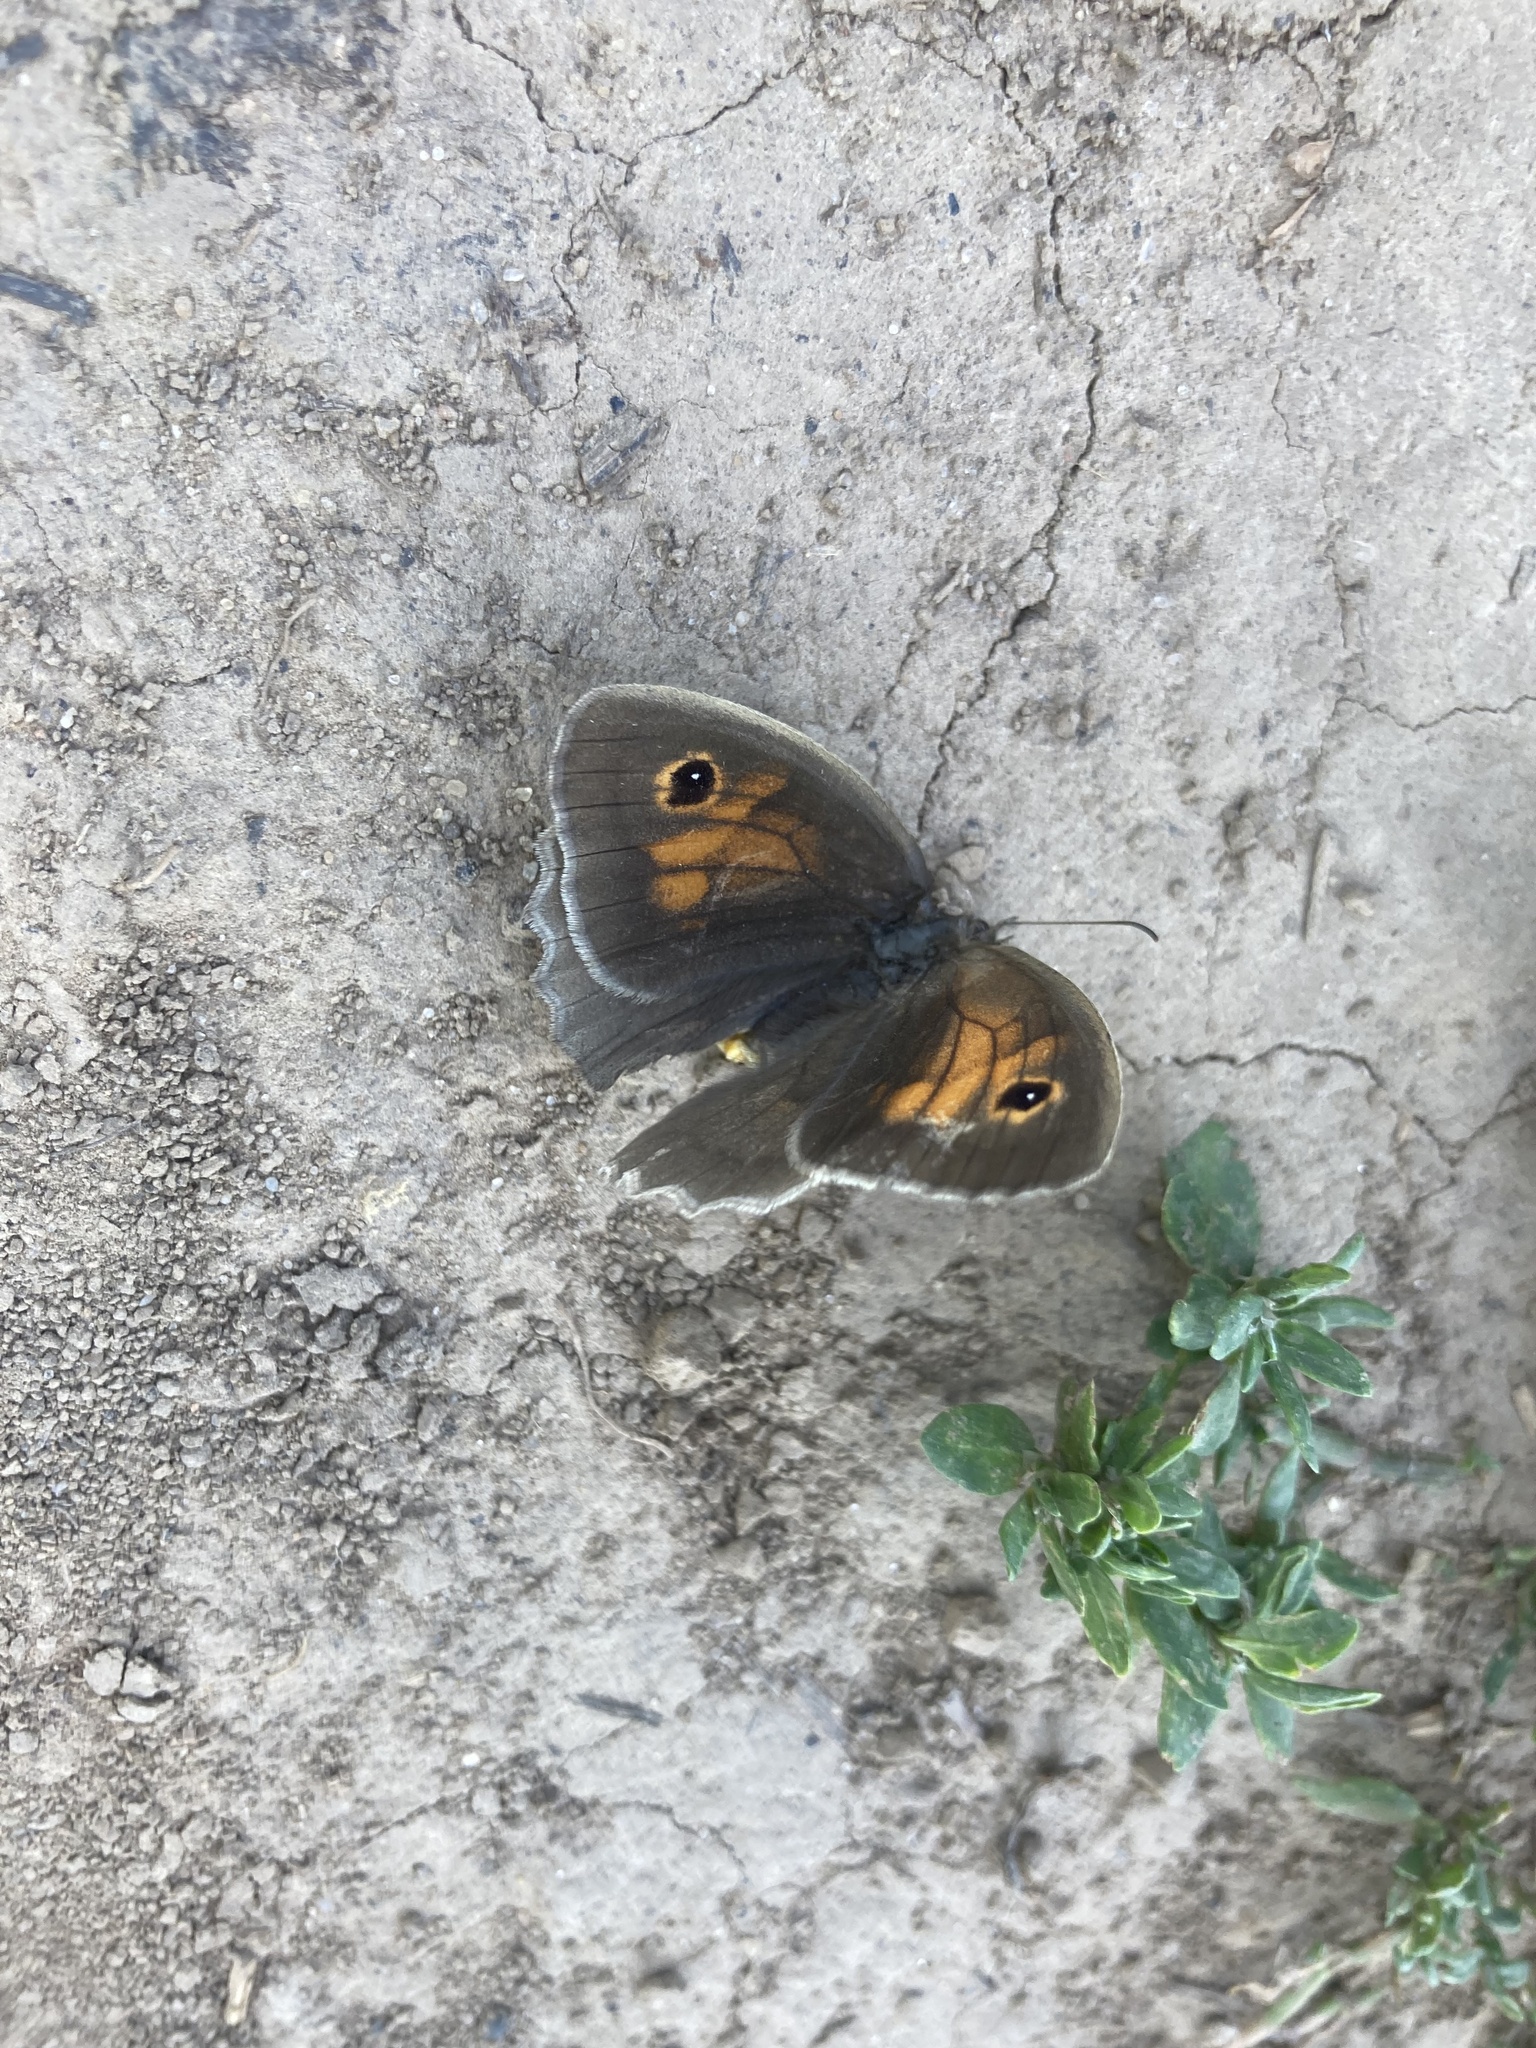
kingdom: Animalia
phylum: Arthropoda
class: Insecta
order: Lepidoptera
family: Nymphalidae
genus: Maniola
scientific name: Maniola jurtina
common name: Meadow brown
